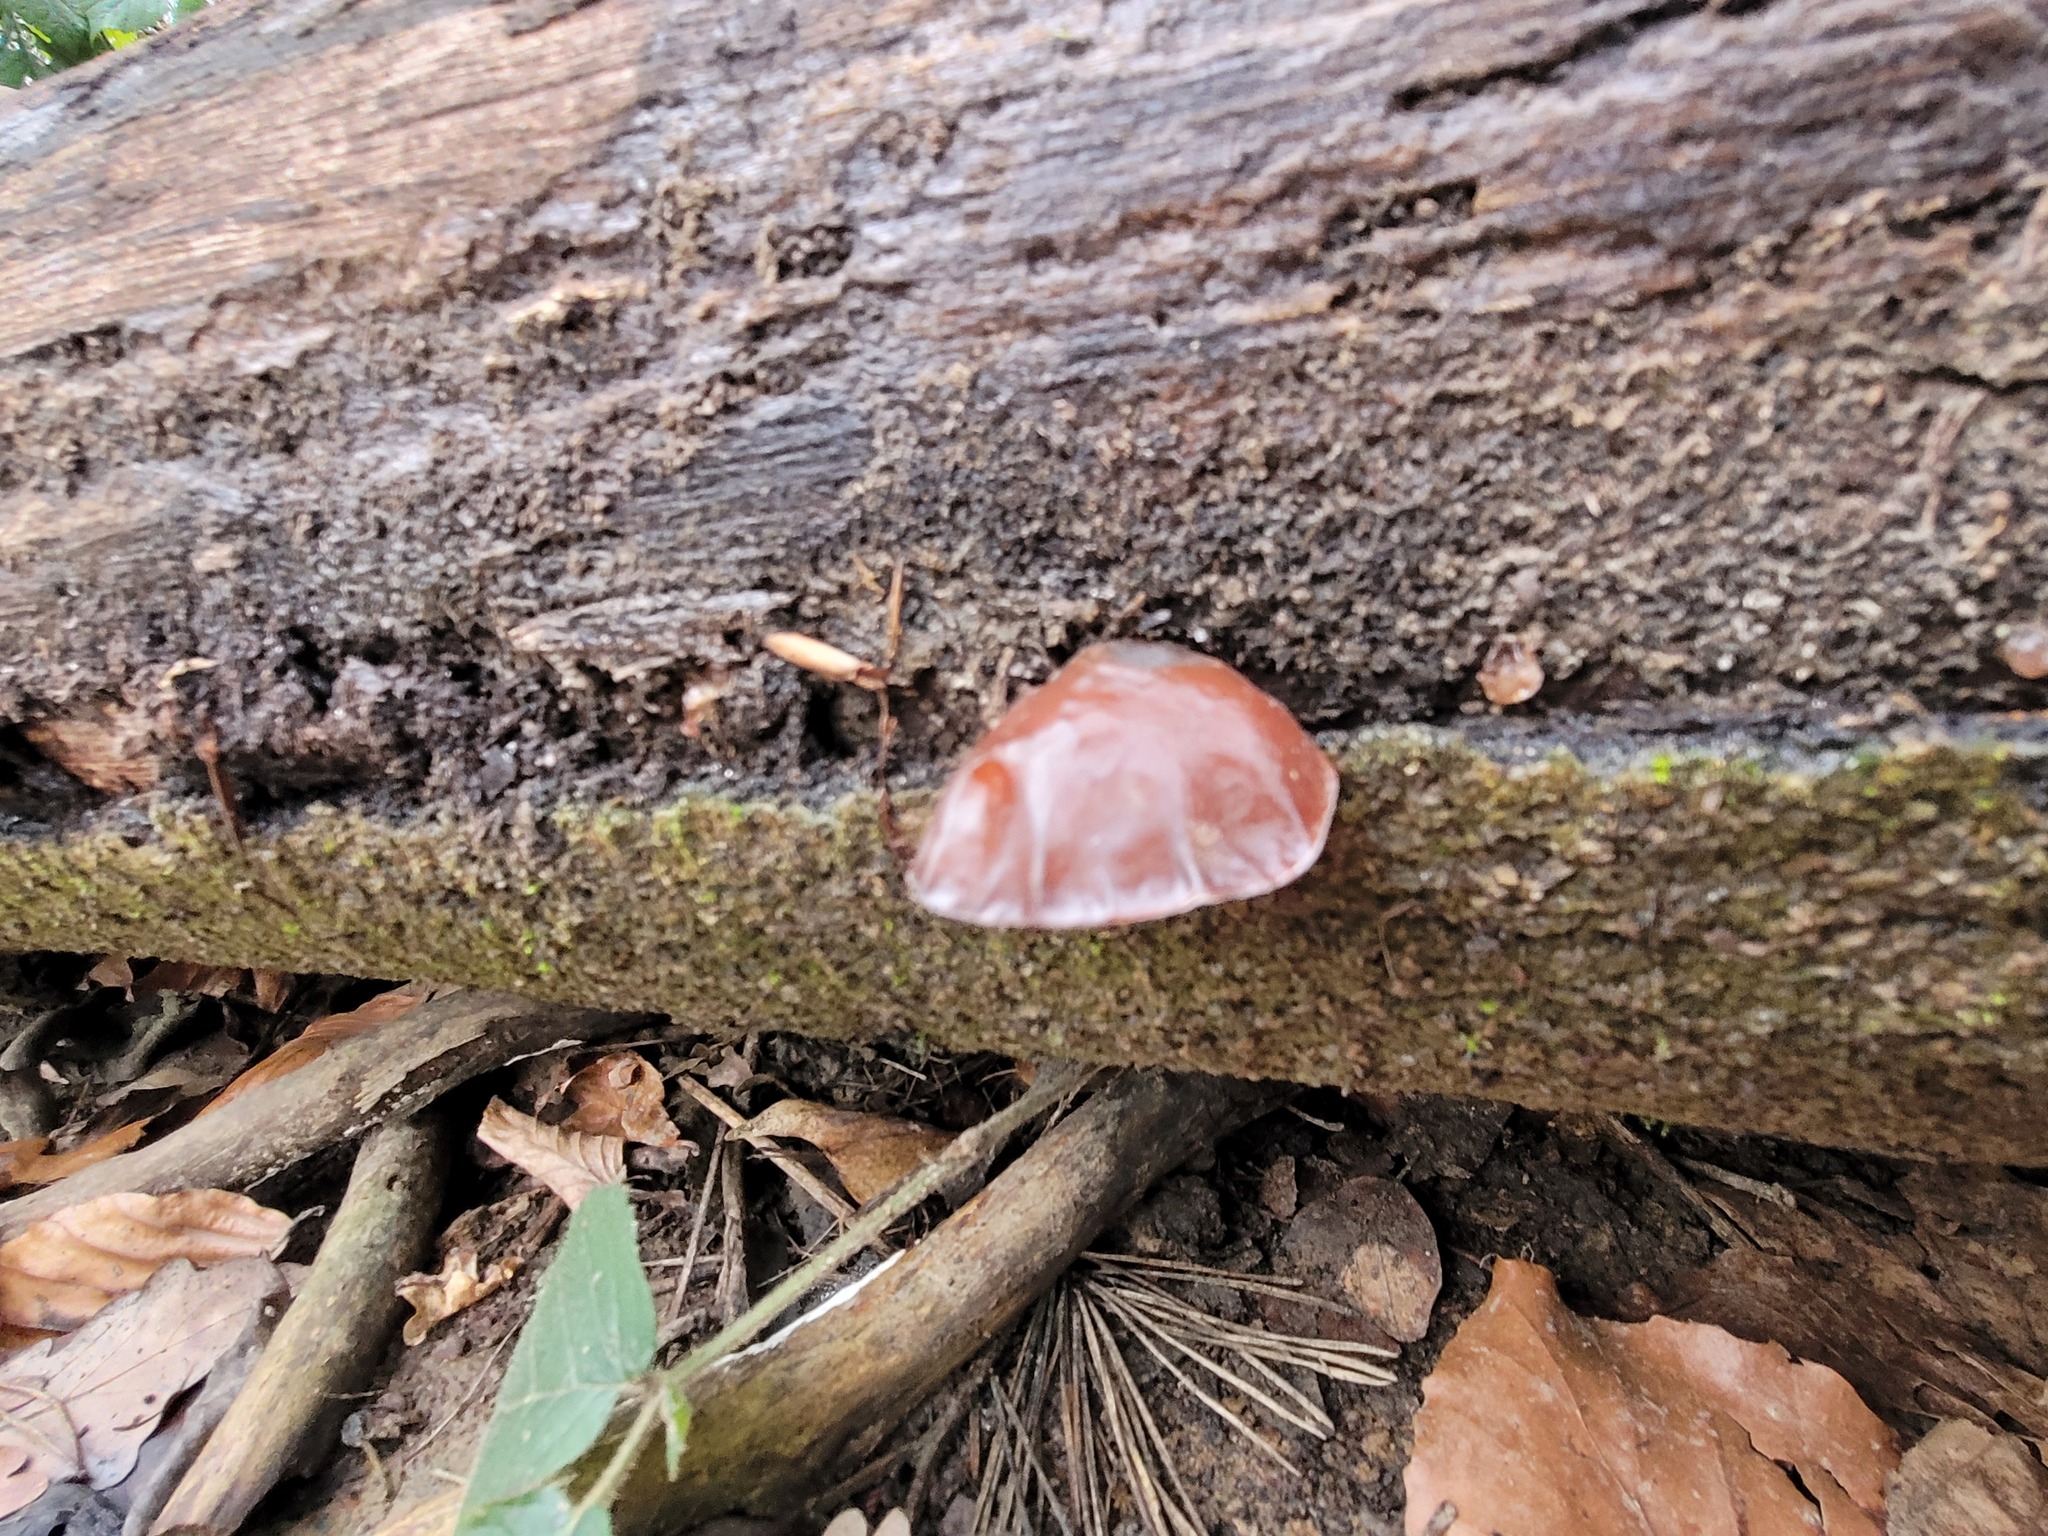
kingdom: Fungi
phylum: Basidiomycota
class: Agaricomycetes
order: Auriculariales
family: Auriculariaceae
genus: Auricularia
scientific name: Auricularia auricula-judae
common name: Jelly ear
